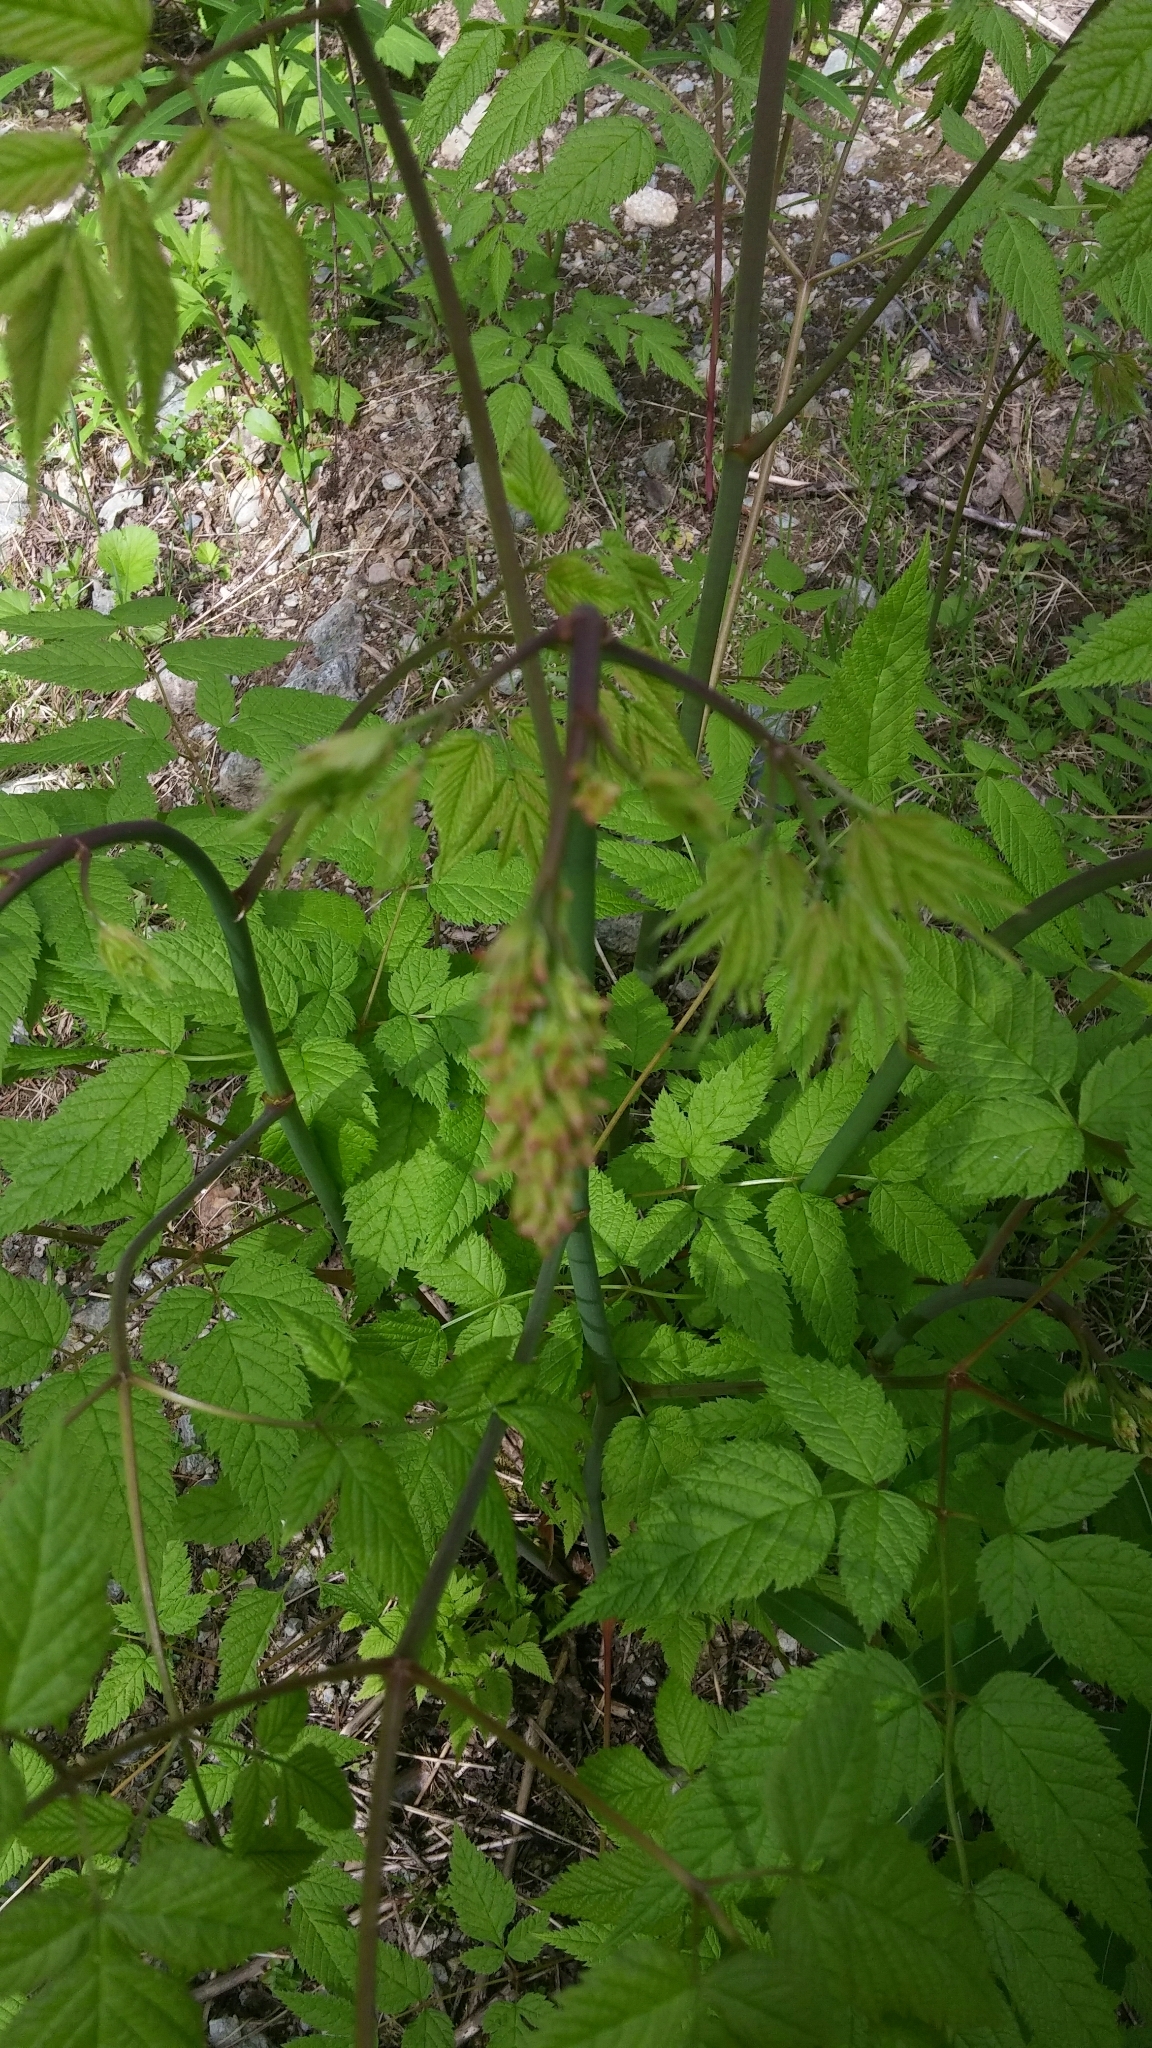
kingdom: Plantae
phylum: Tracheophyta
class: Magnoliopsida
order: Rosales
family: Rosaceae
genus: Aruncus
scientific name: Aruncus dioicus
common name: Buck's-beard
